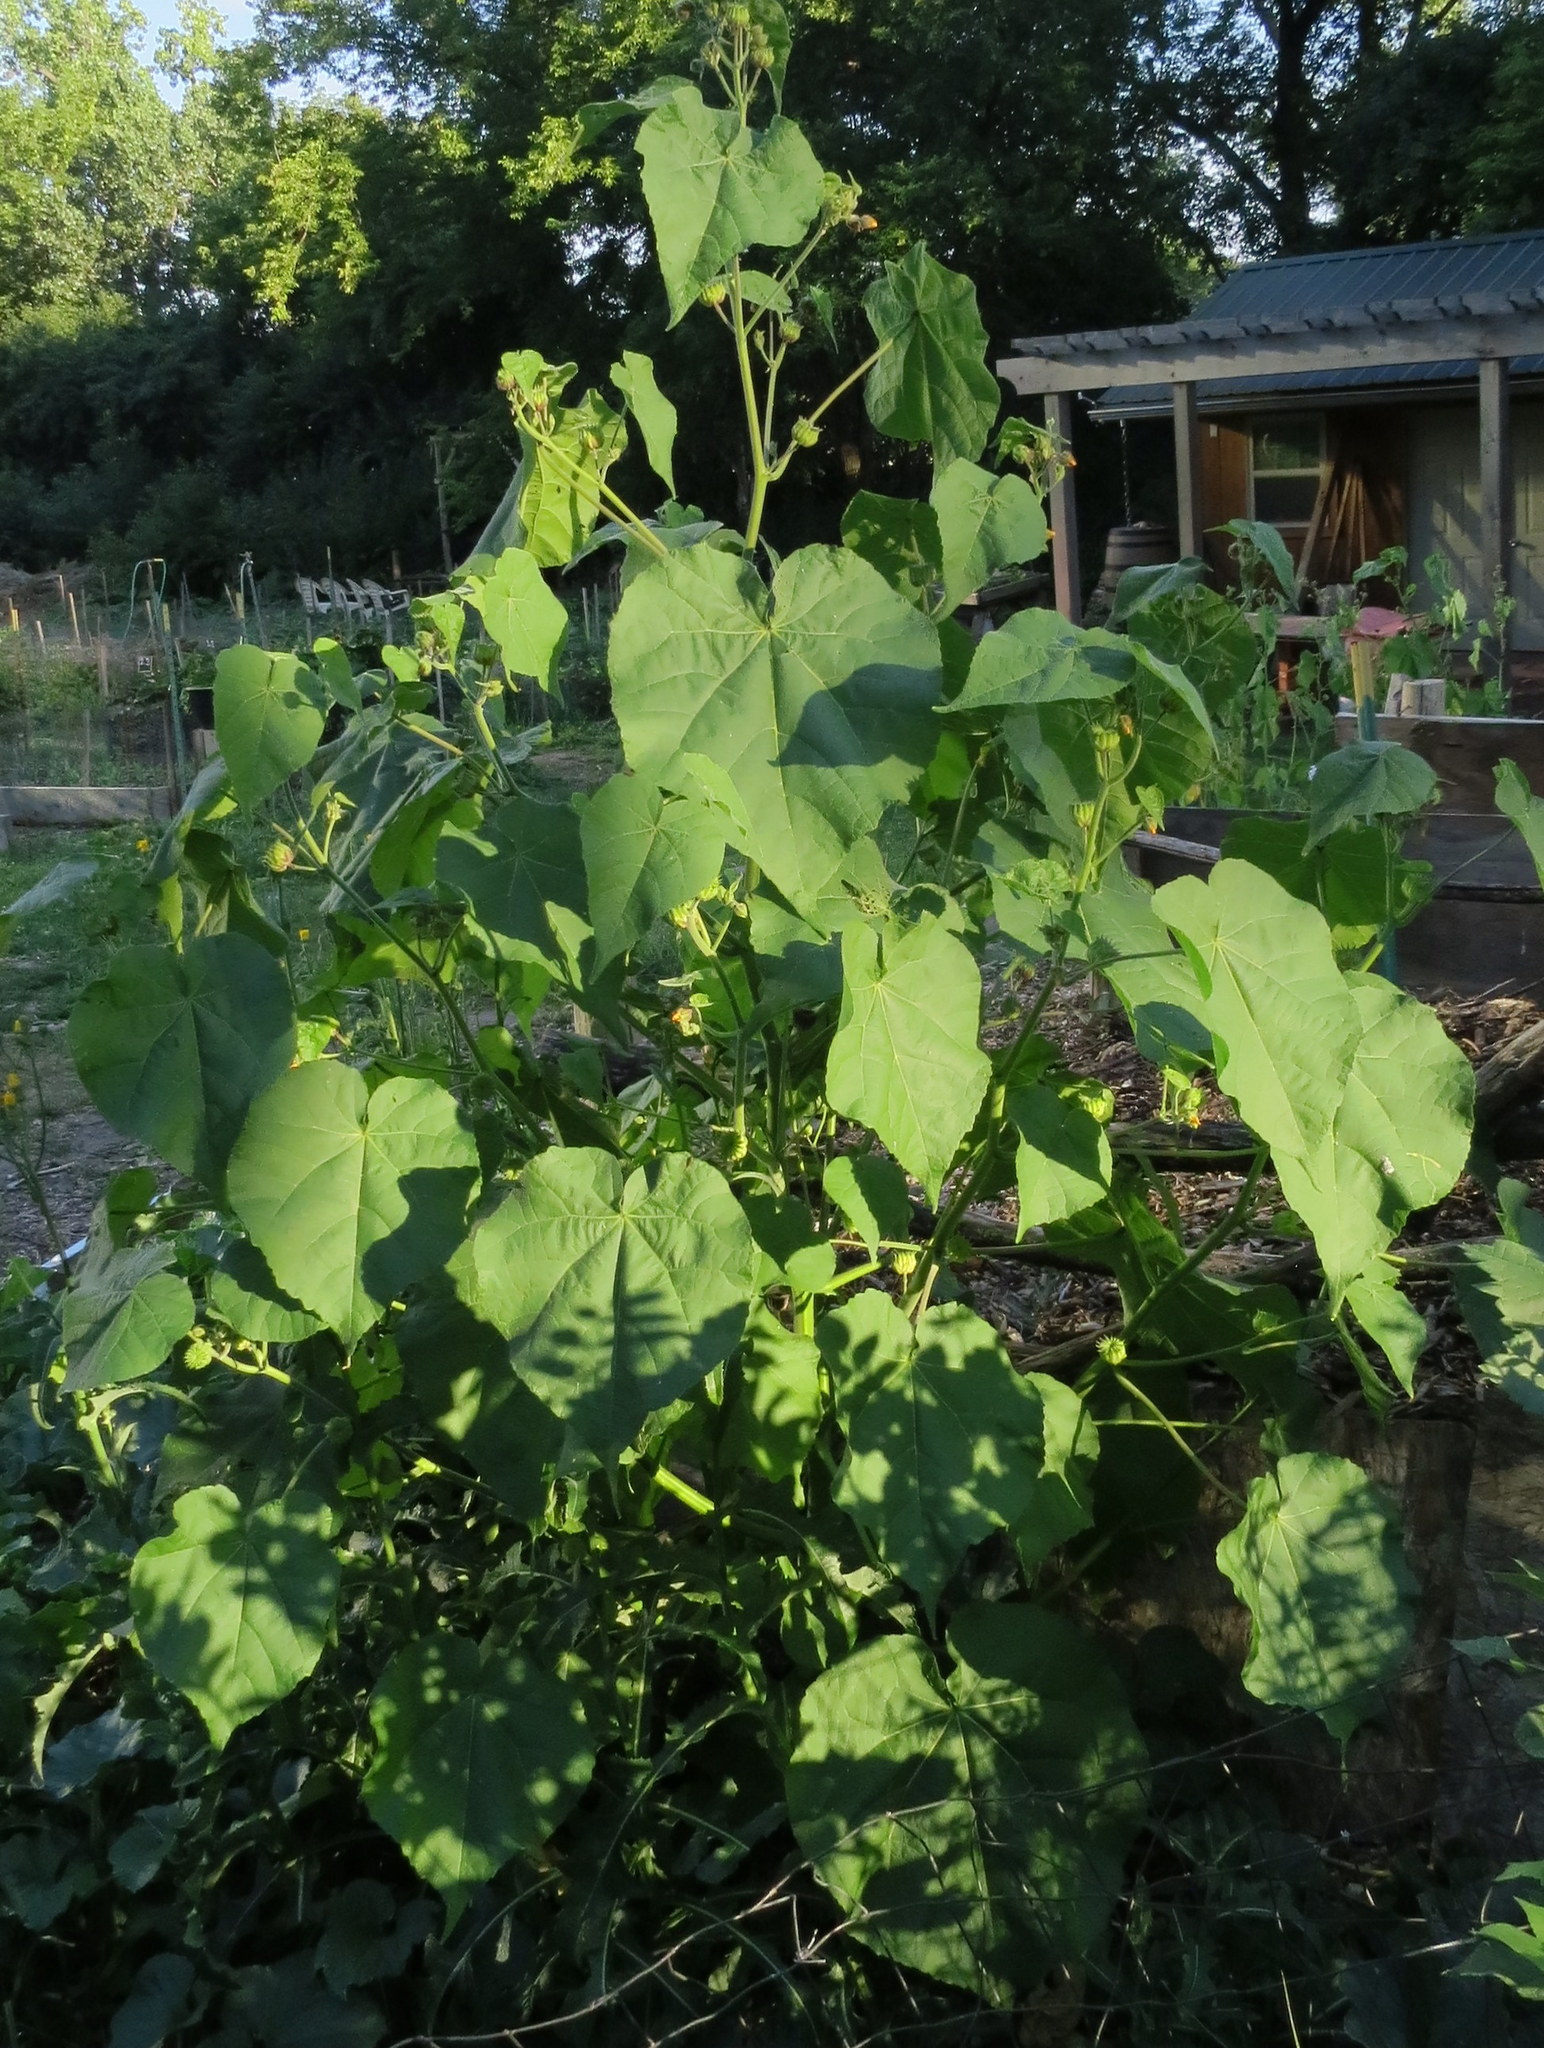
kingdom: Plantae
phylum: Tracheophyta
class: Magnoliopsida
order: Malvales
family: Malvaceae
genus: Abutilon
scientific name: Abutilon theophrasti
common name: Velvetleaf
